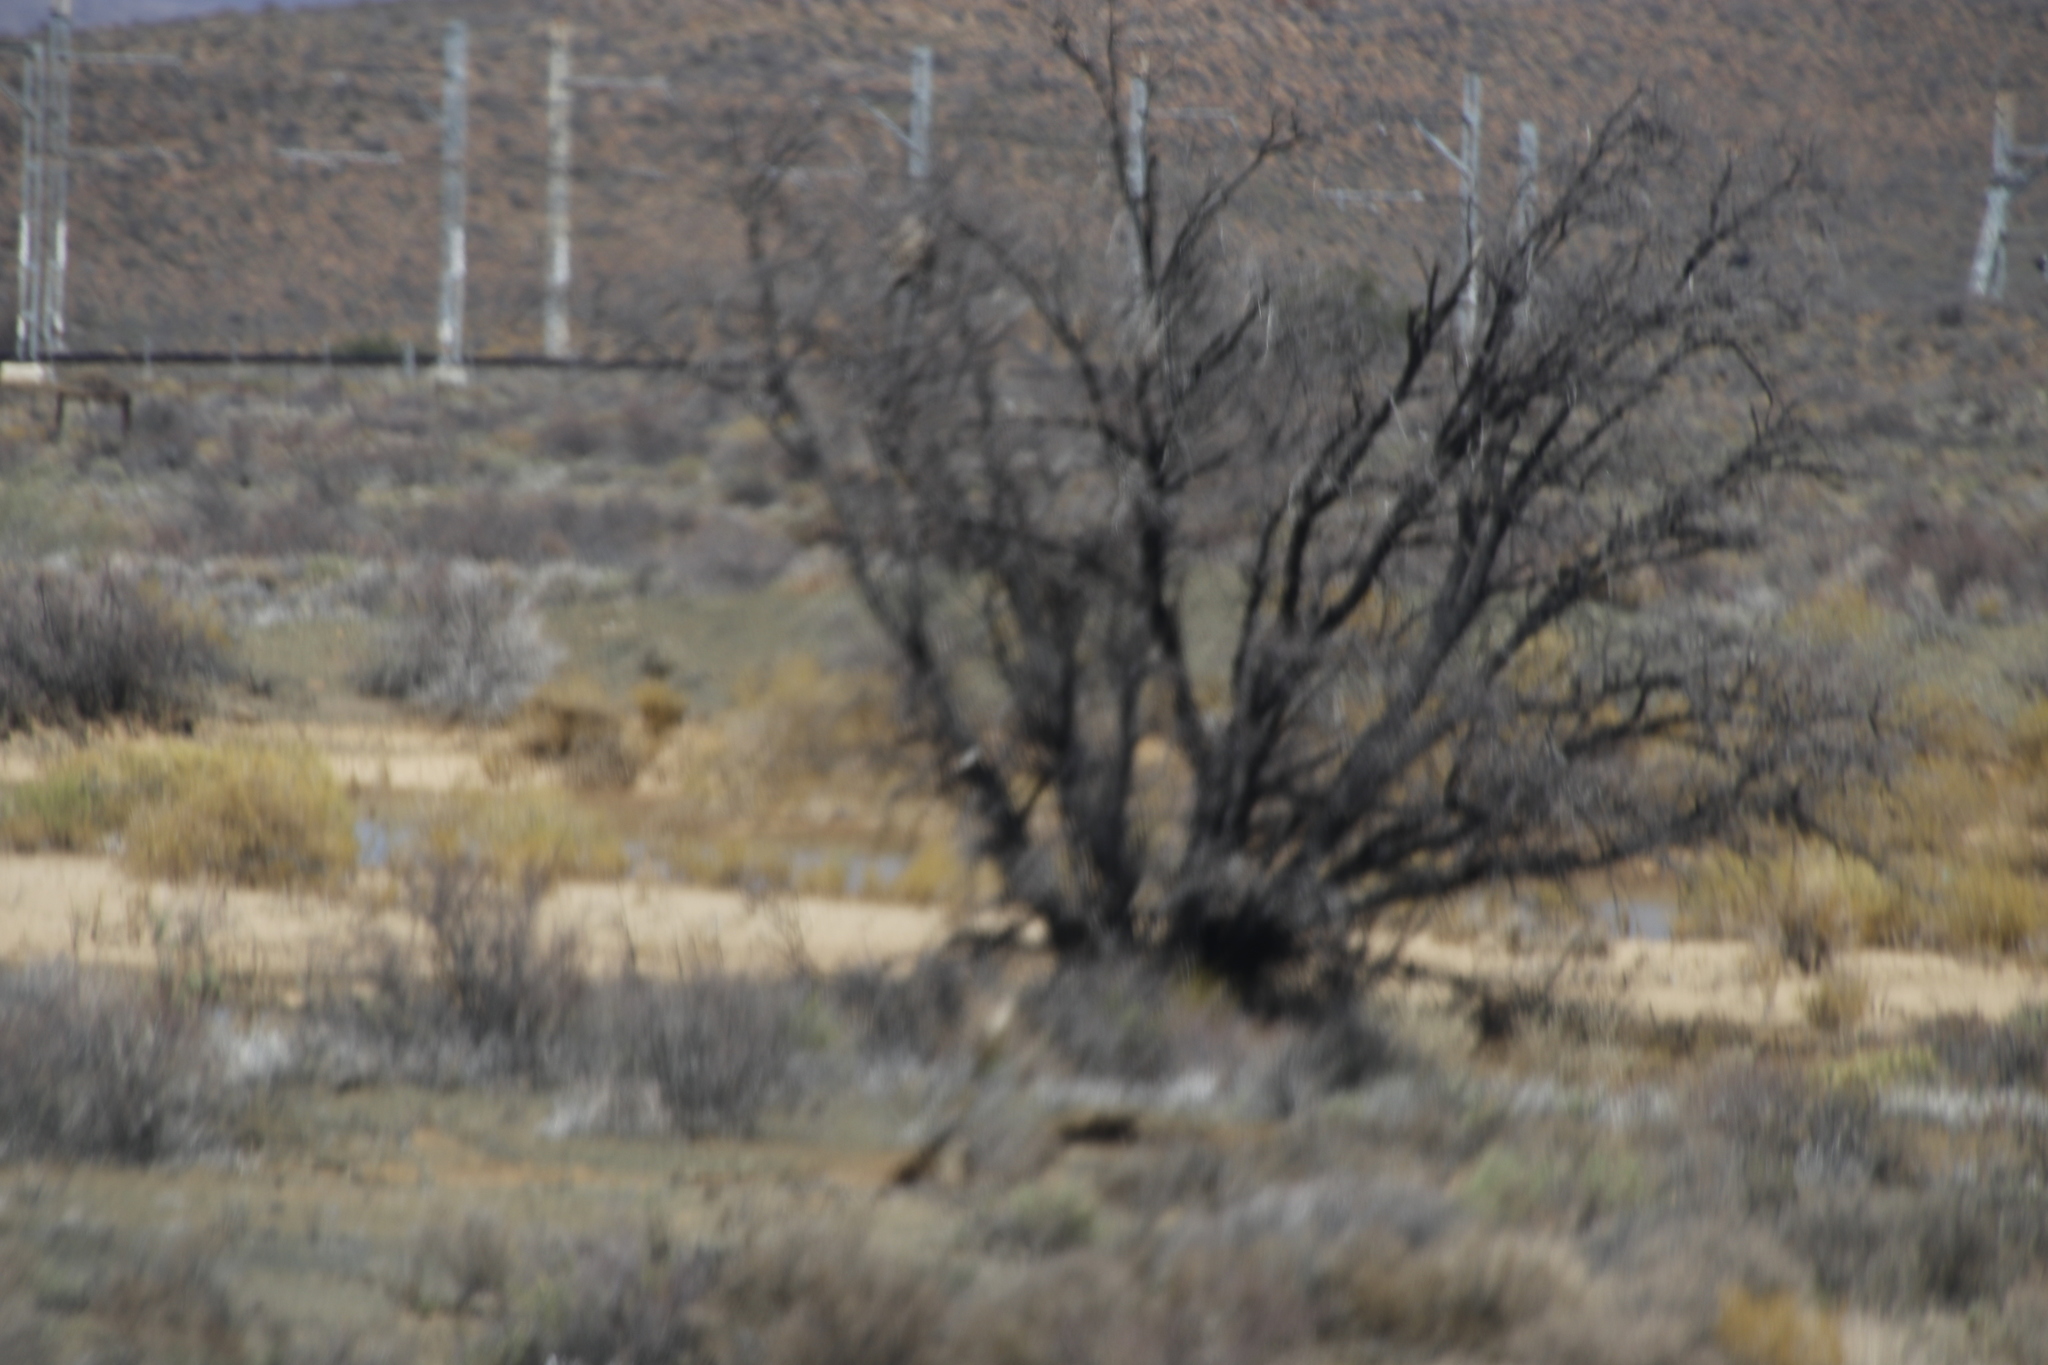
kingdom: Plantae
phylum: Tracheophyta
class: Magnoliopsida
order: Fabales
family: Fabaceae
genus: Vachellia
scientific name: Vachellia karroo
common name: Sweet thorn
